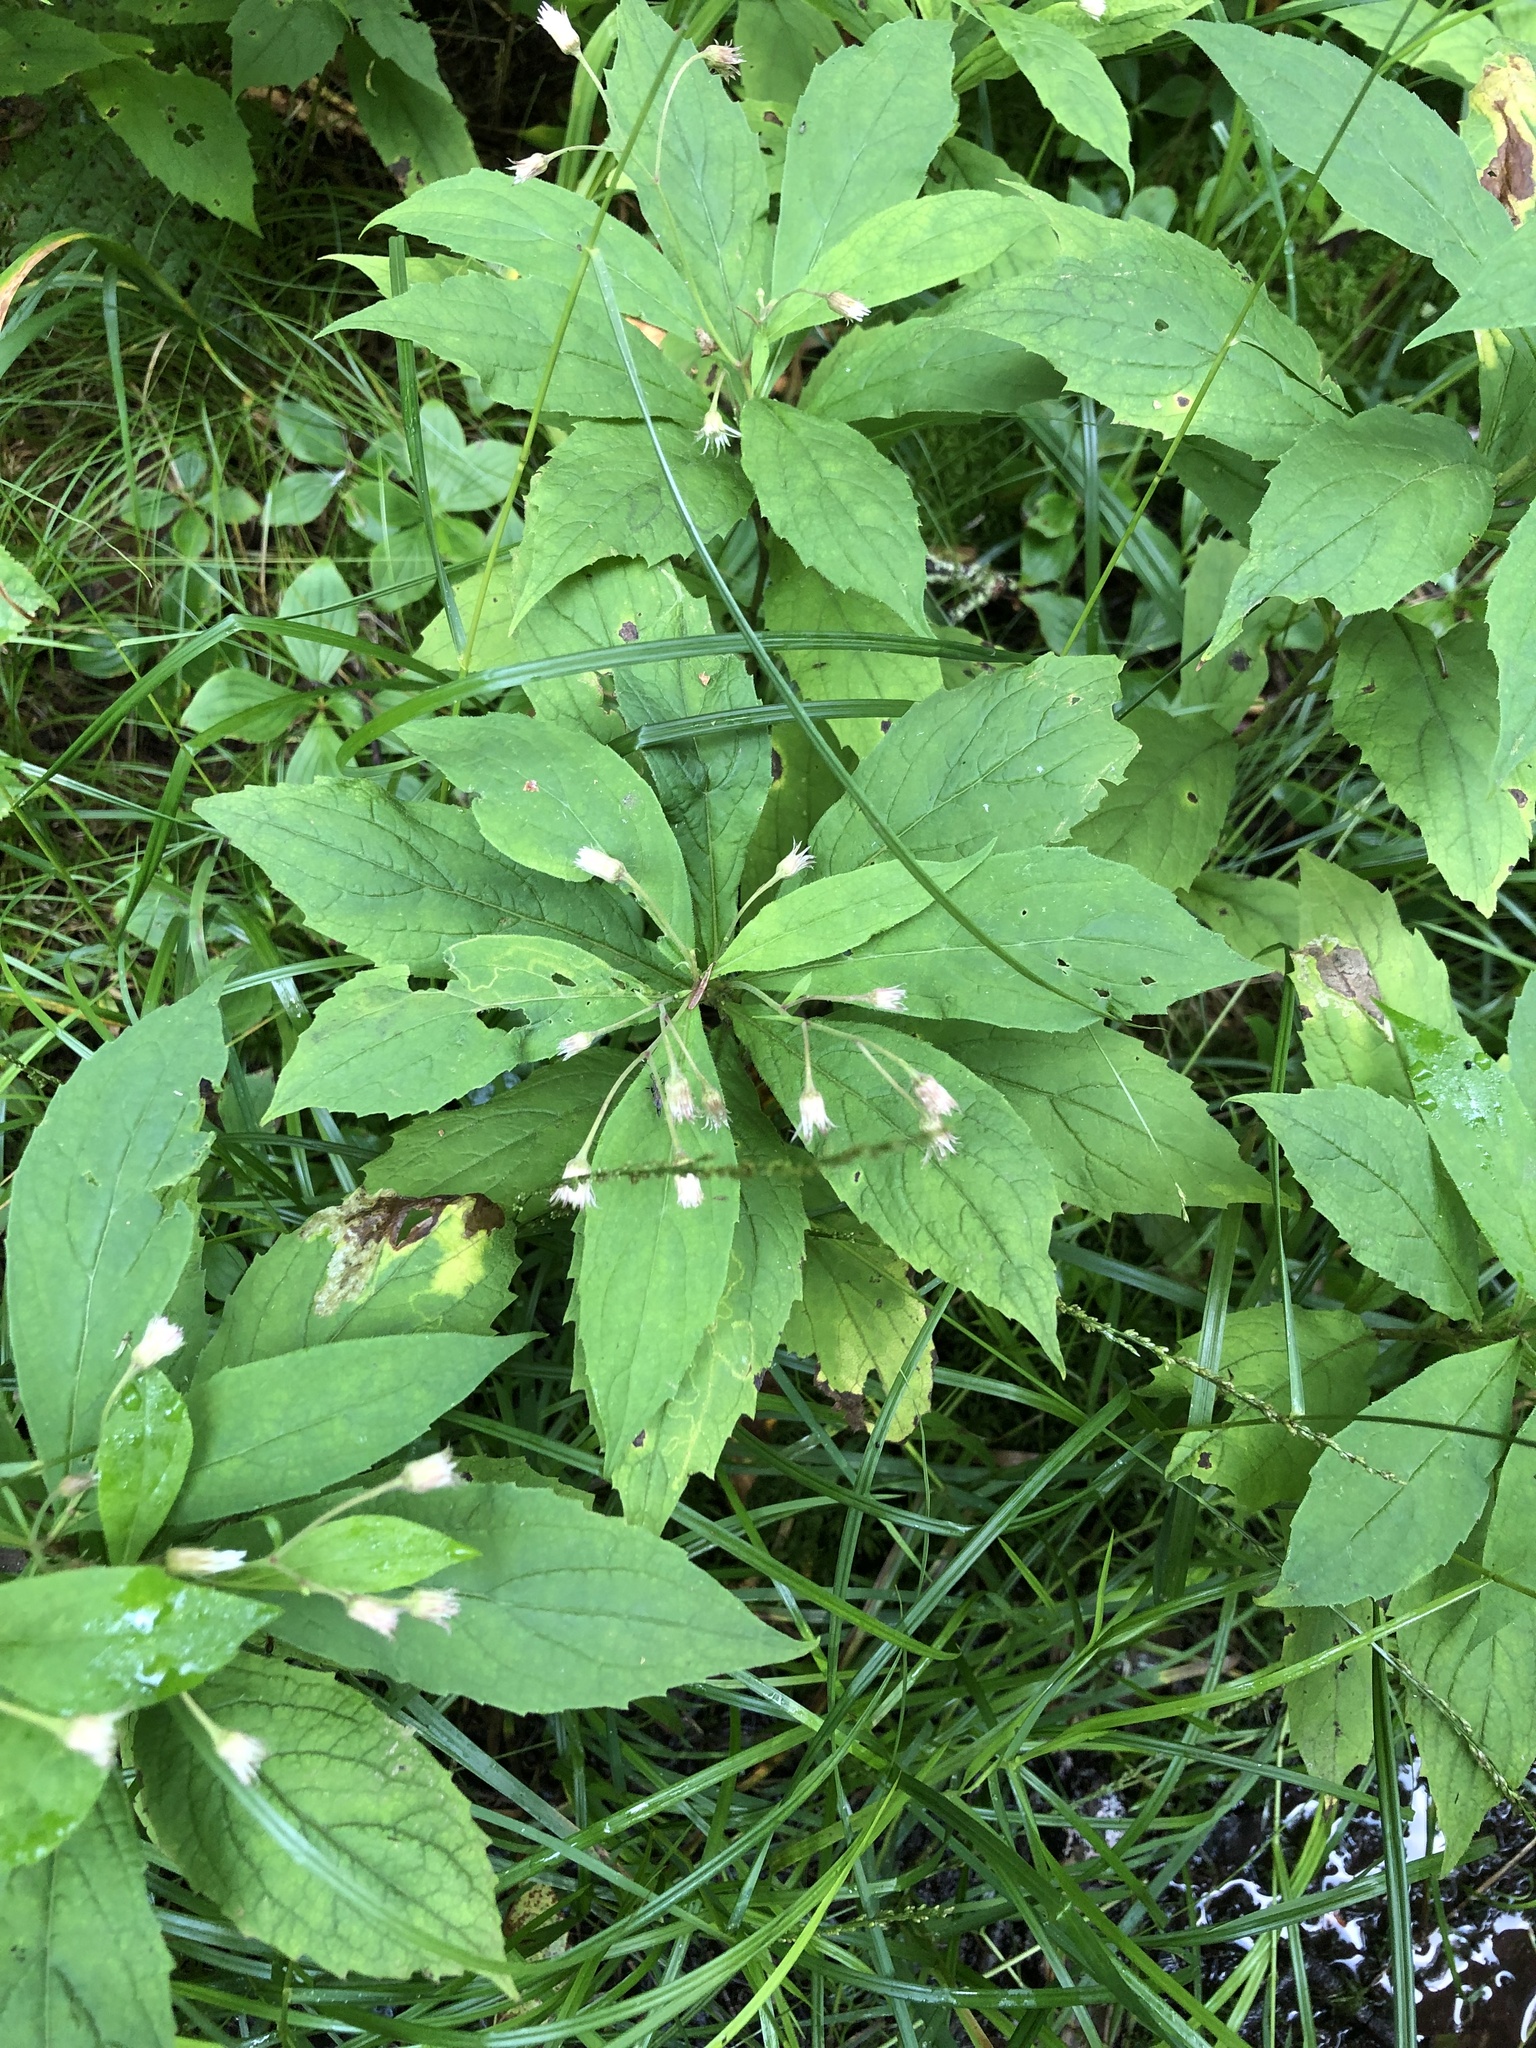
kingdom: Plantae
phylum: Tracheophyta
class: Magnoliopsida
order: Asterales
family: Asteraceae
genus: Oclemena
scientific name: Oclemena acuminata
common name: Mountain aster
